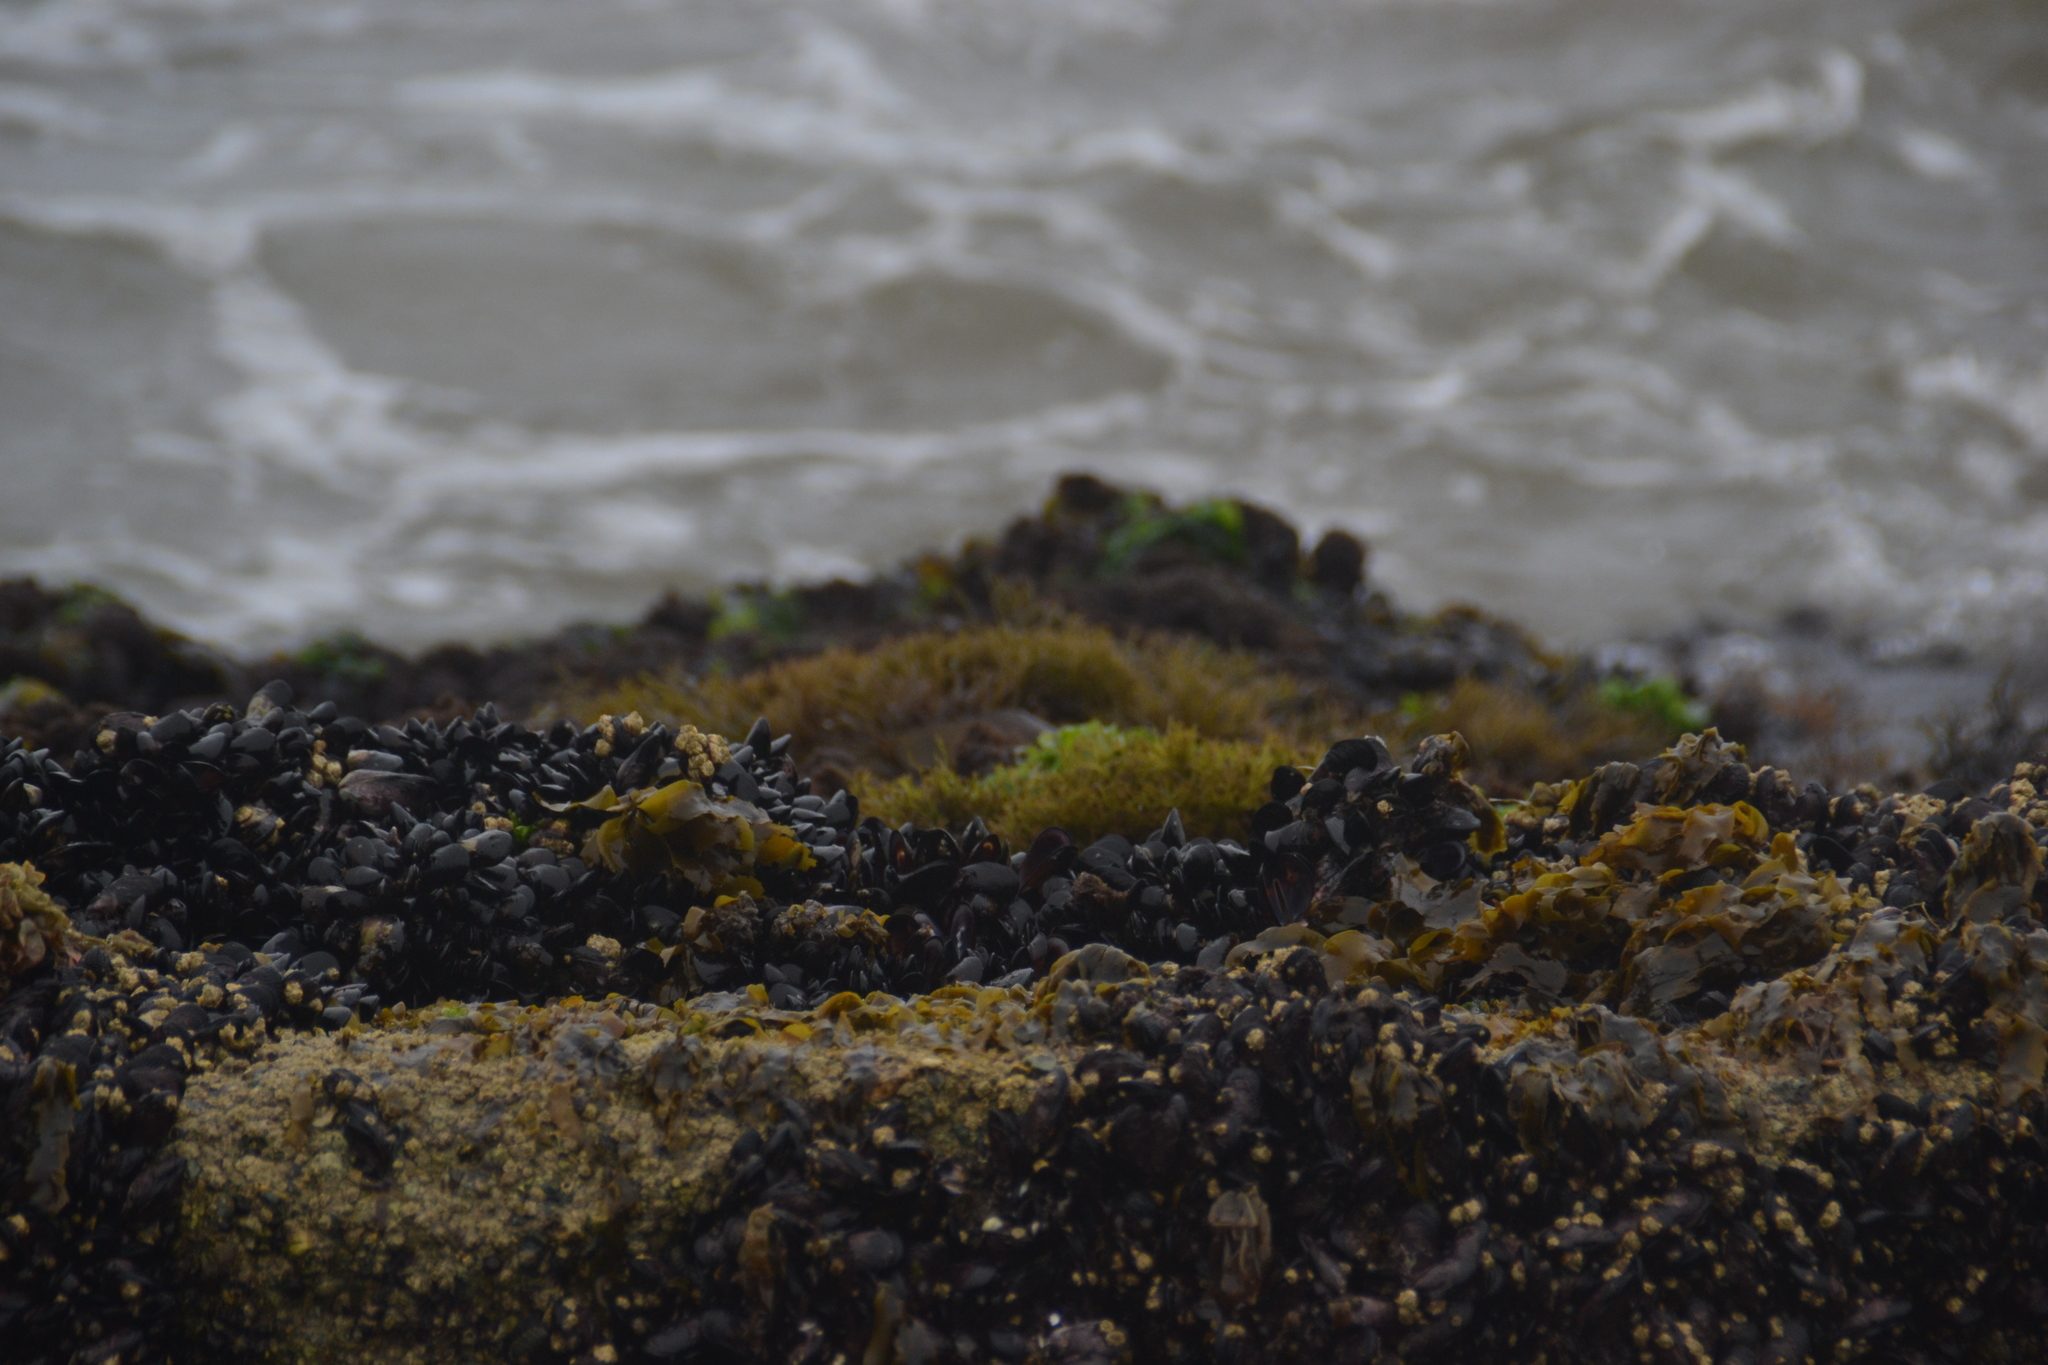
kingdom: Animalia
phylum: Mollusca
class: Bivalvia
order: Mytilida
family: Mytilidae
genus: Semimytilus
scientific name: Semimytilus patagonicus
